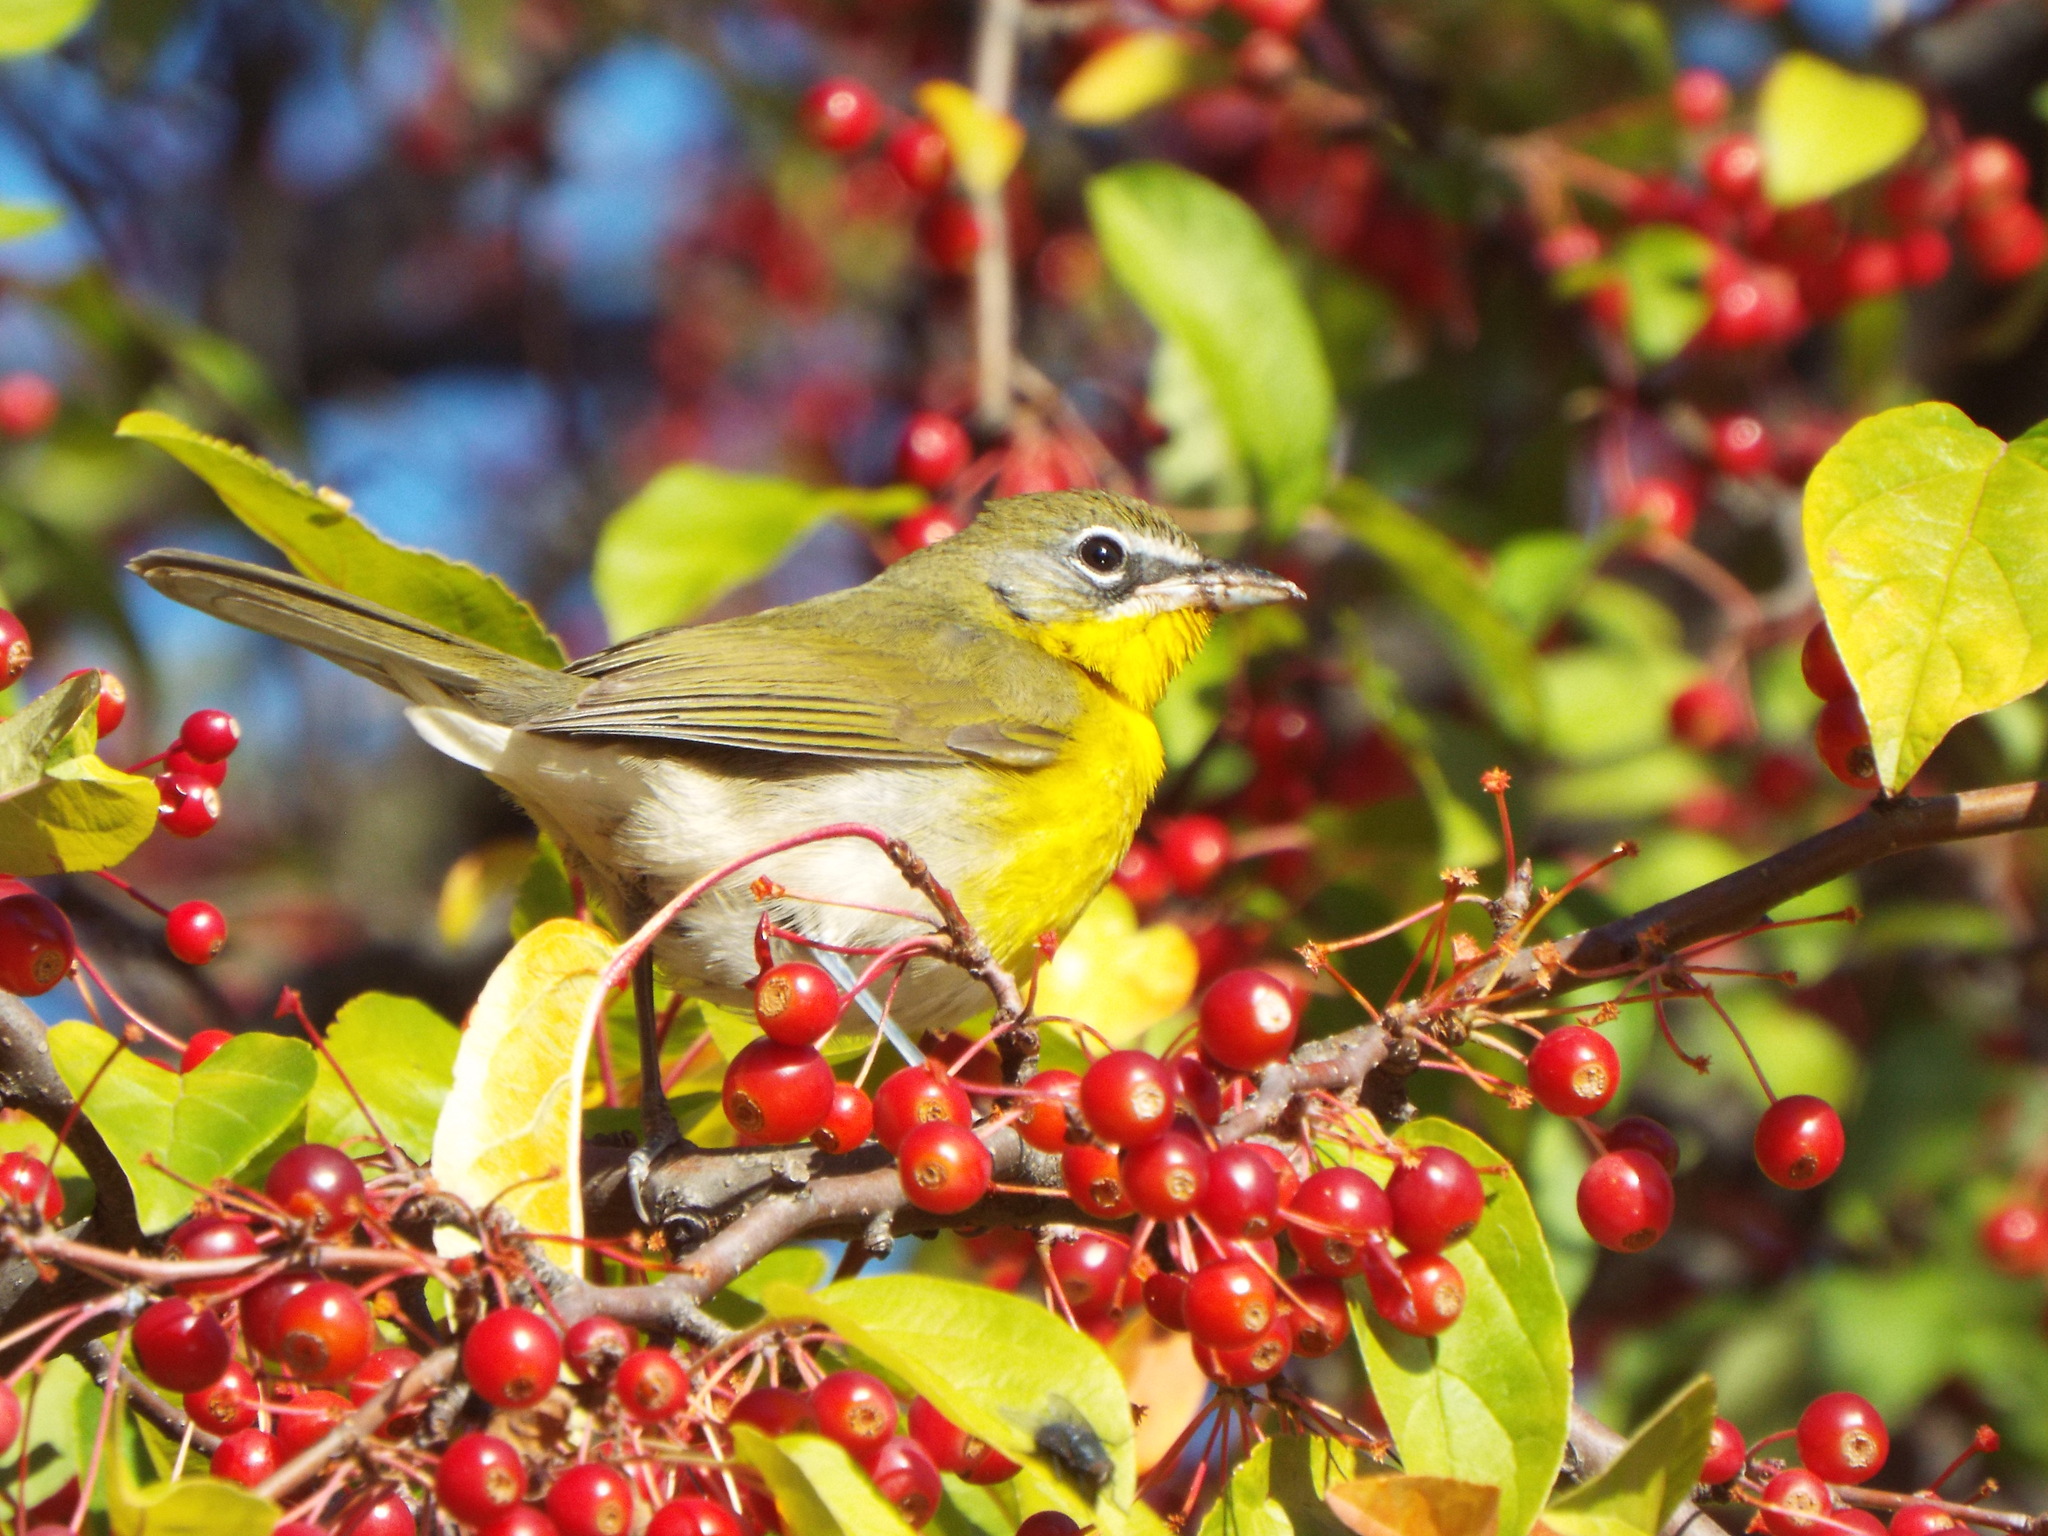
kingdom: Animalia
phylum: Chordata
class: Aves
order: Passeriformes
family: Parulidae
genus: Icteria
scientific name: Icteria virens
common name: Yellow-breasted chat
